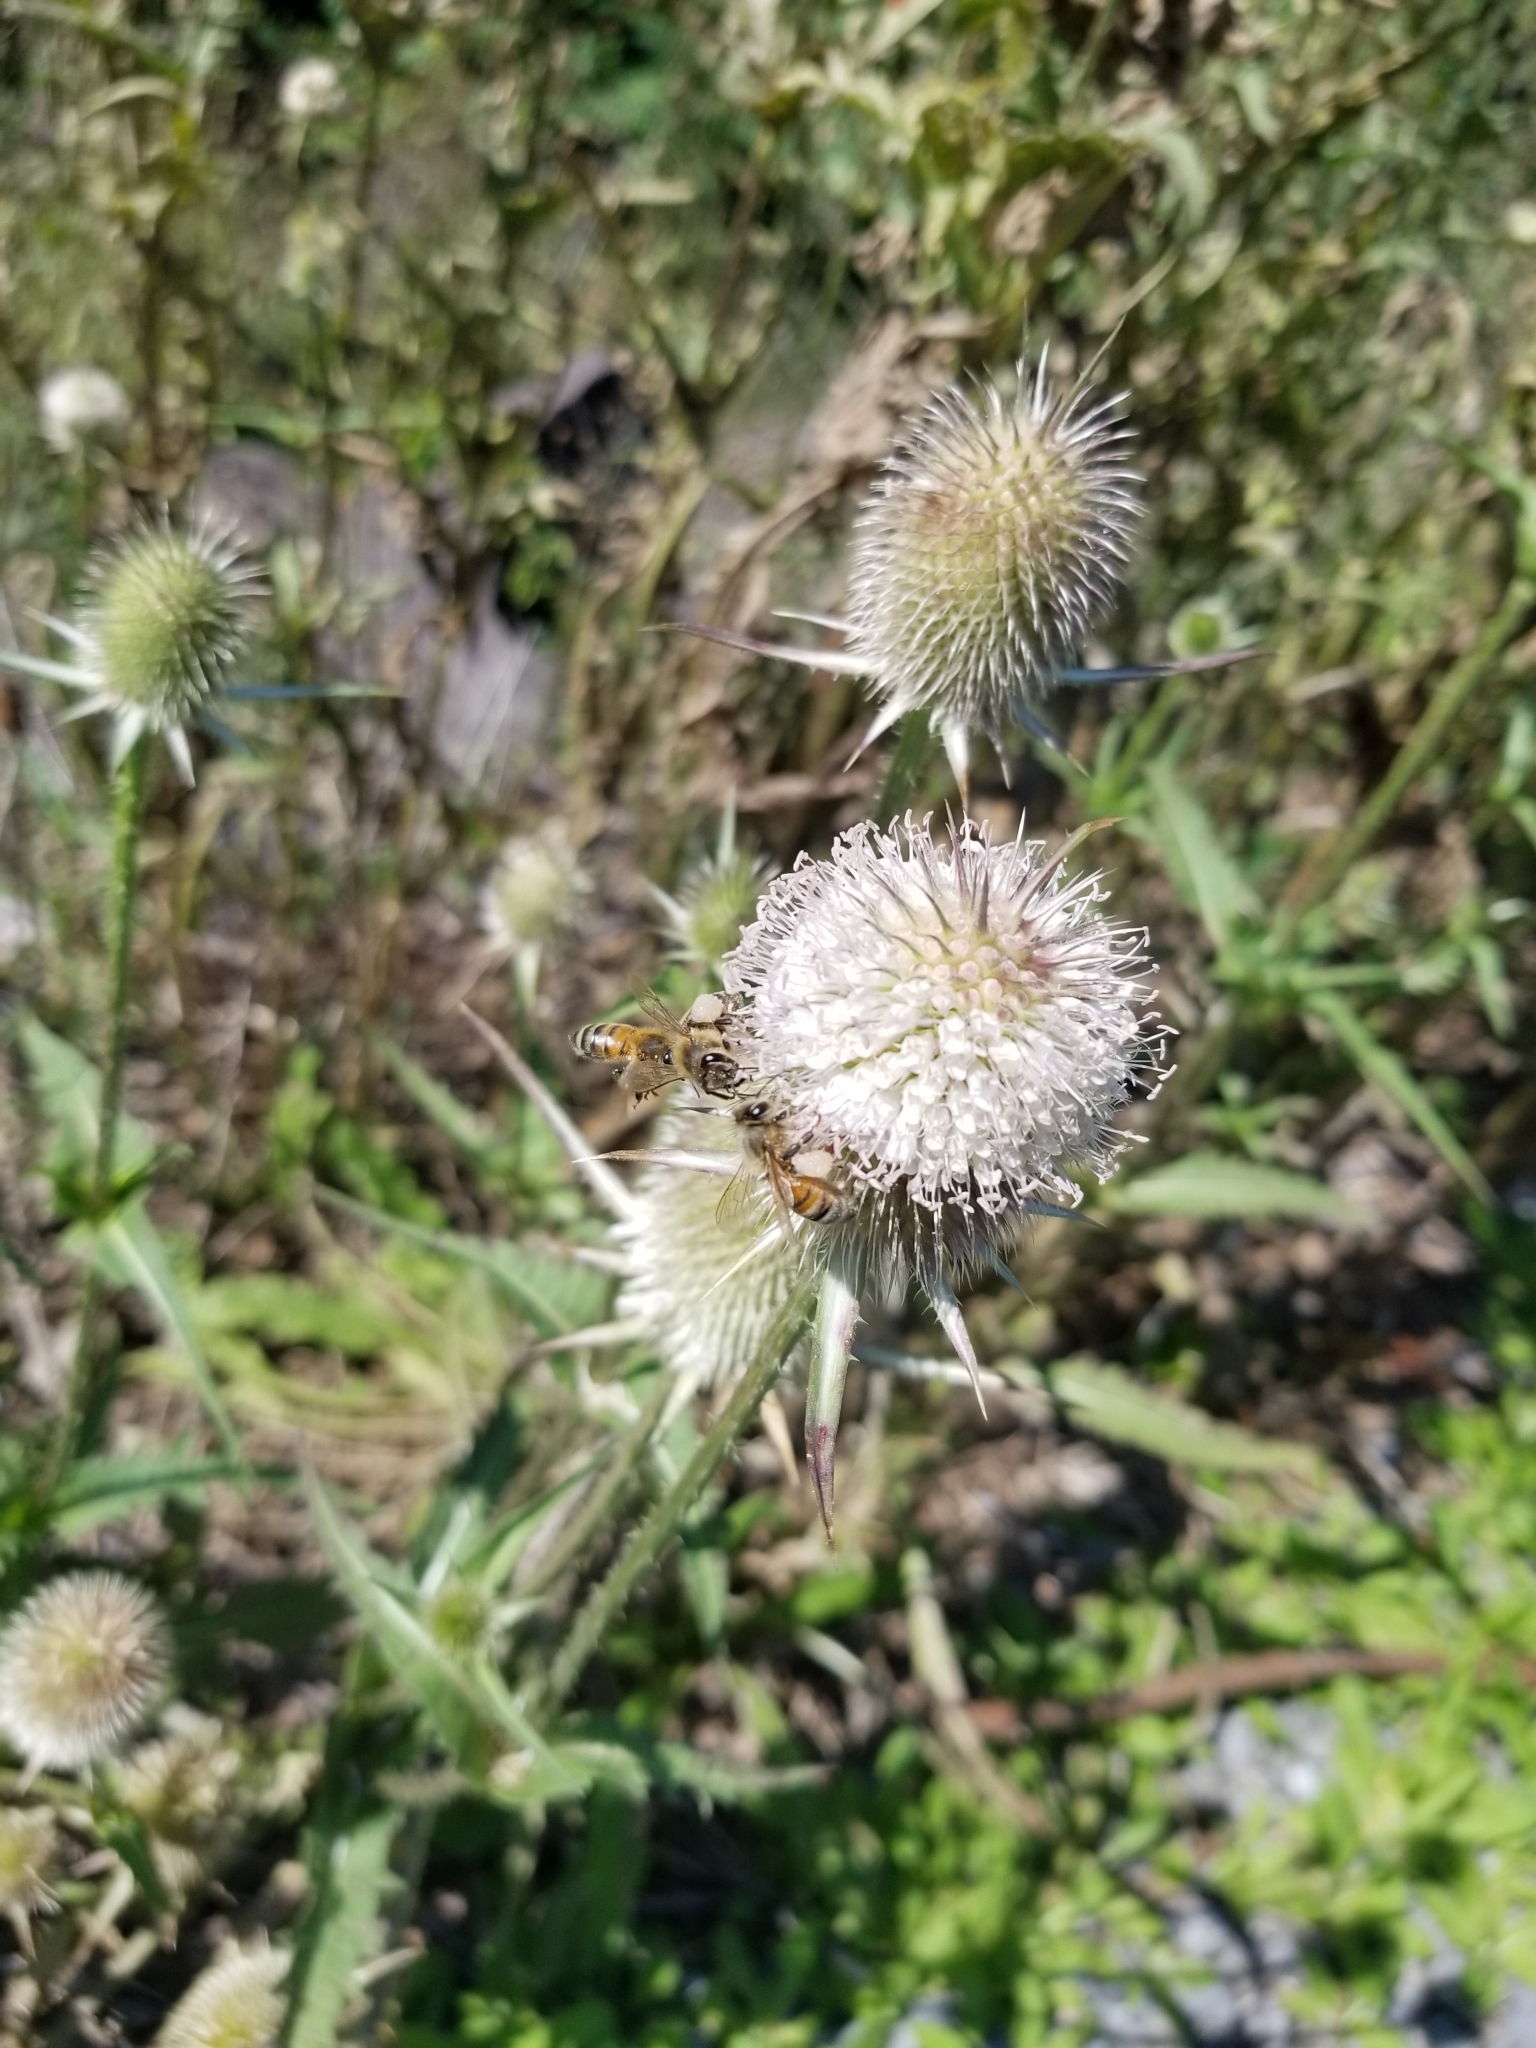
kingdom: Animalia
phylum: Arthropoda
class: Insecta
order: Hymenoptera
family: Apidae
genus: Apis
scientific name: Apis mellifera
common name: Honey bee
